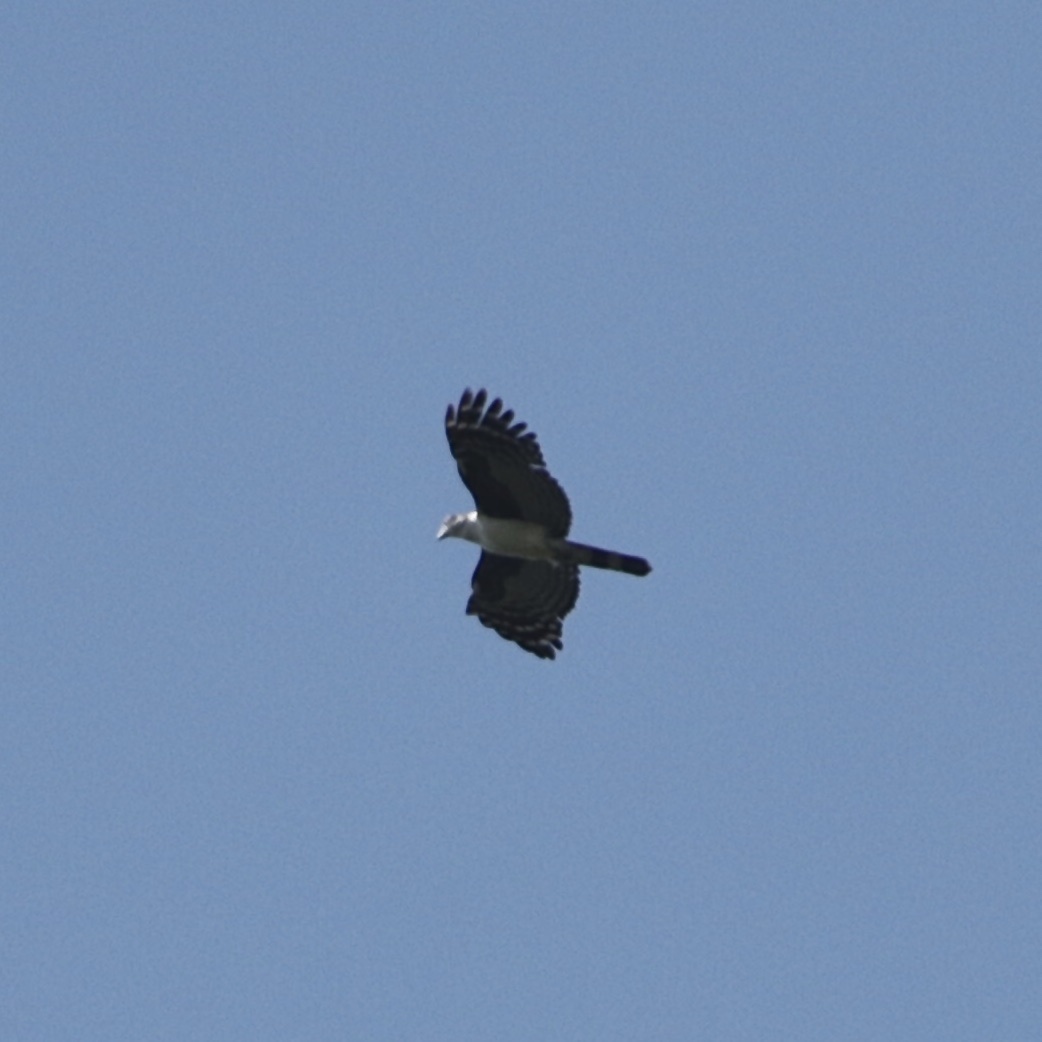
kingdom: Animalia
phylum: Chordata
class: Aves
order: Accipitriformes
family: Accipitridae
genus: Leptodon
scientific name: Leptodon cayanensis
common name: Gray-headed kite
